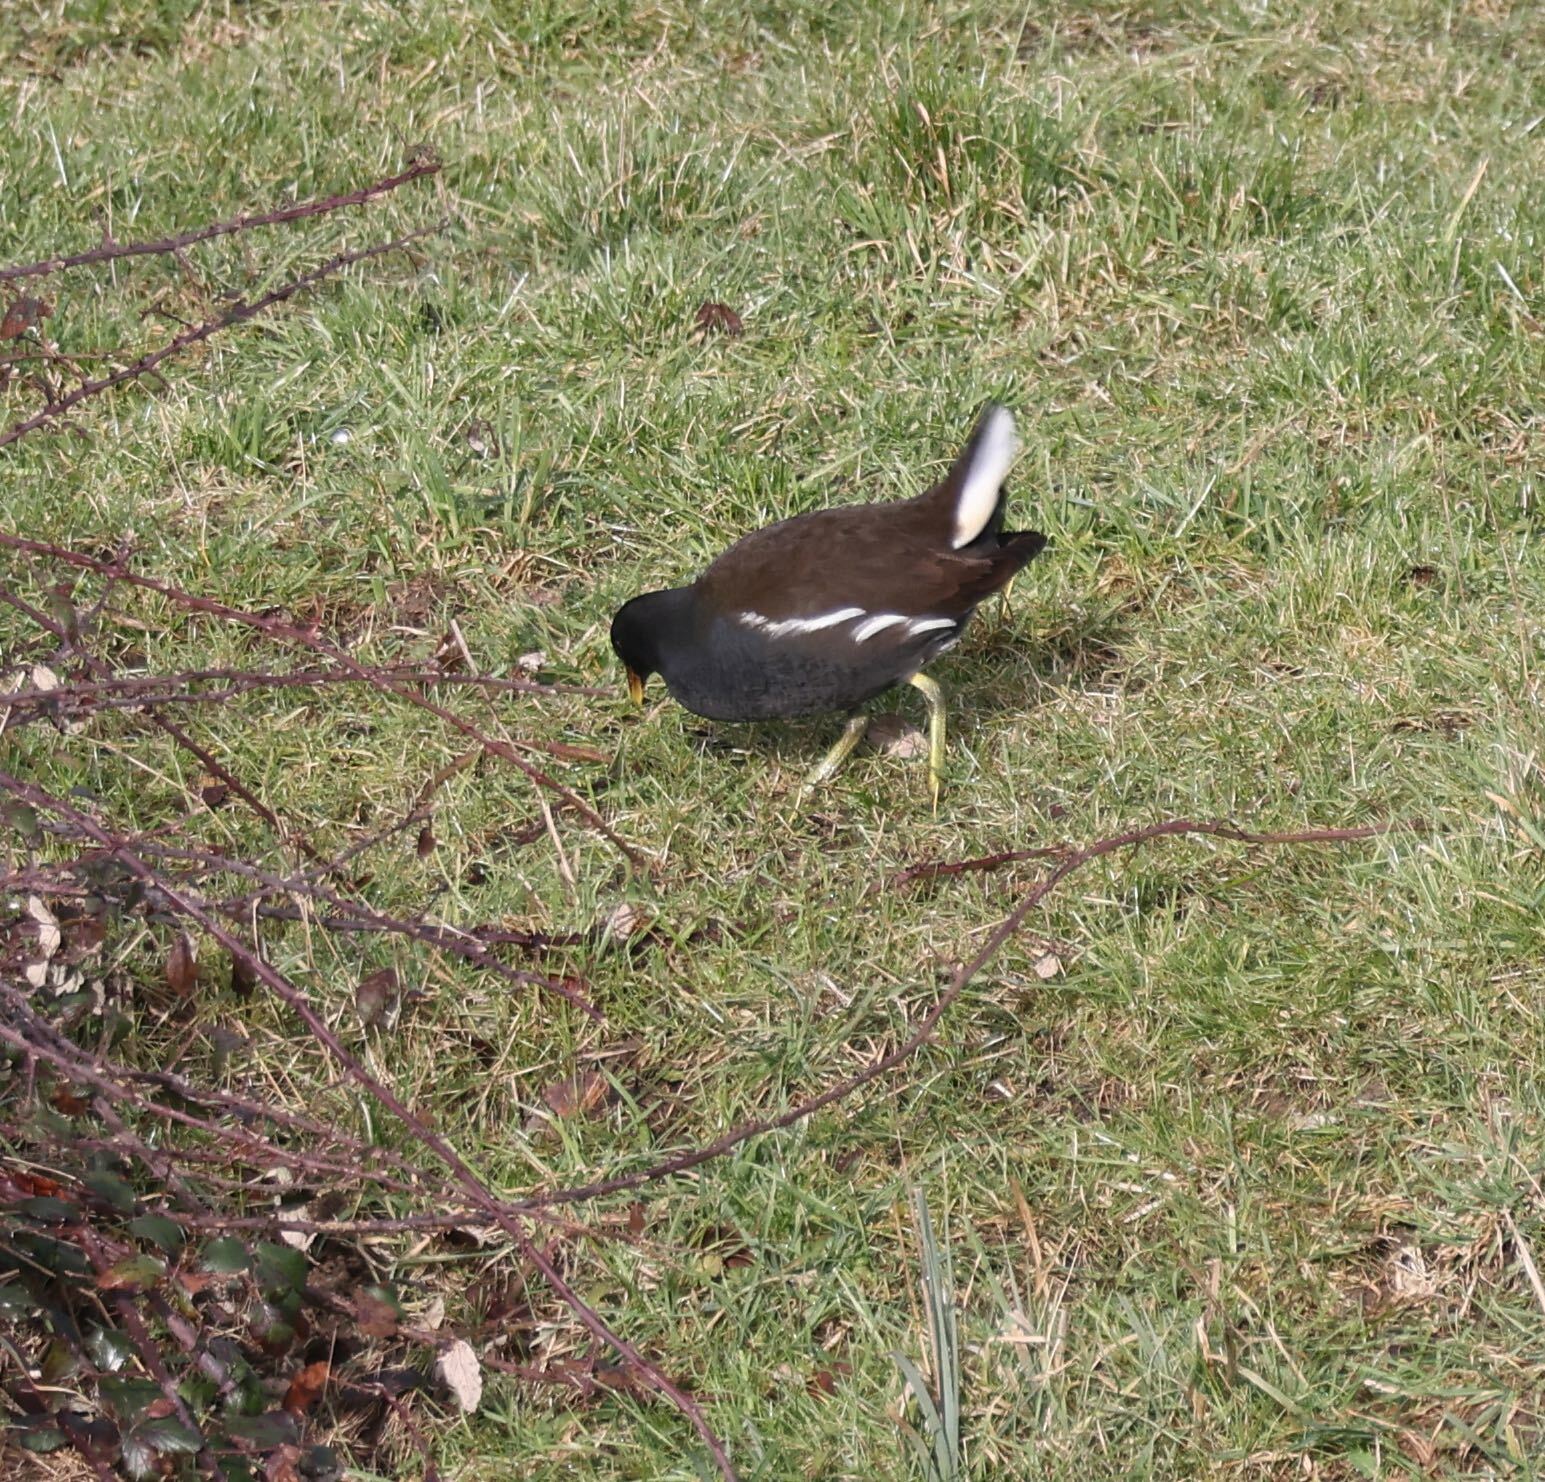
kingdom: Animalia
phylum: Chordata
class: Aves
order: Gruiformes
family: Rallidae
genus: Gallinula
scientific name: Gallinula chloropus
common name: Common moorhen
